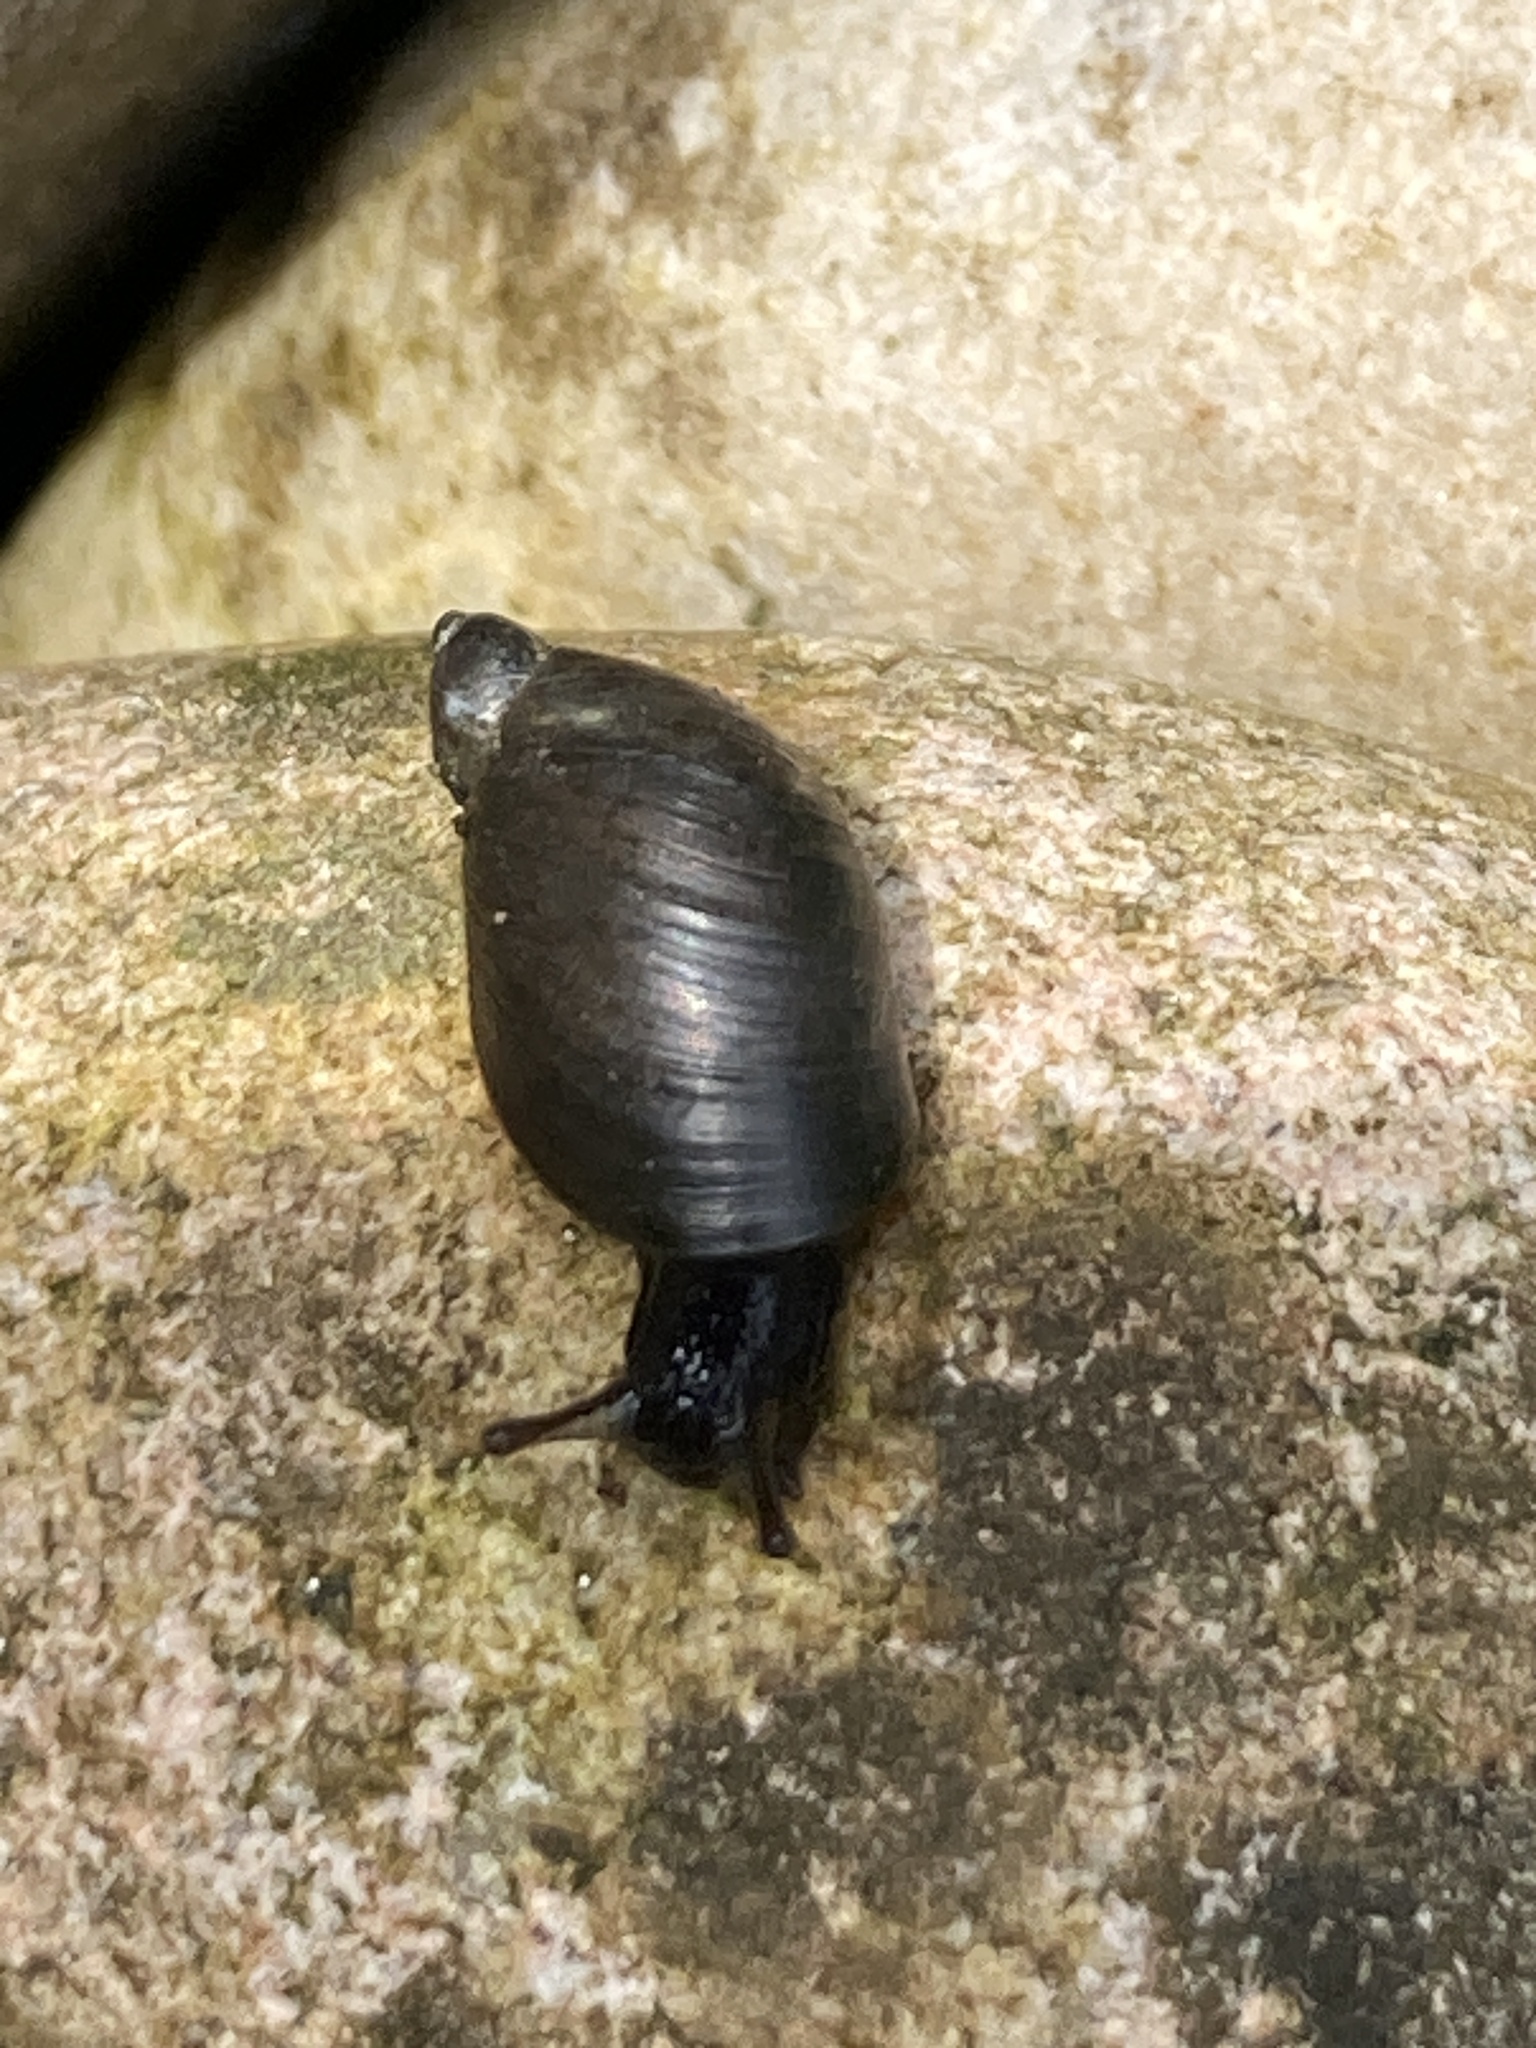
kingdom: Animalia
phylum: Mollusca
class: Gastropoda
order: Stylommatophora
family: Succineidae
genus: Oxyloma
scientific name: Oxyloma elegans
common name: Pfeiffer's amber snail
